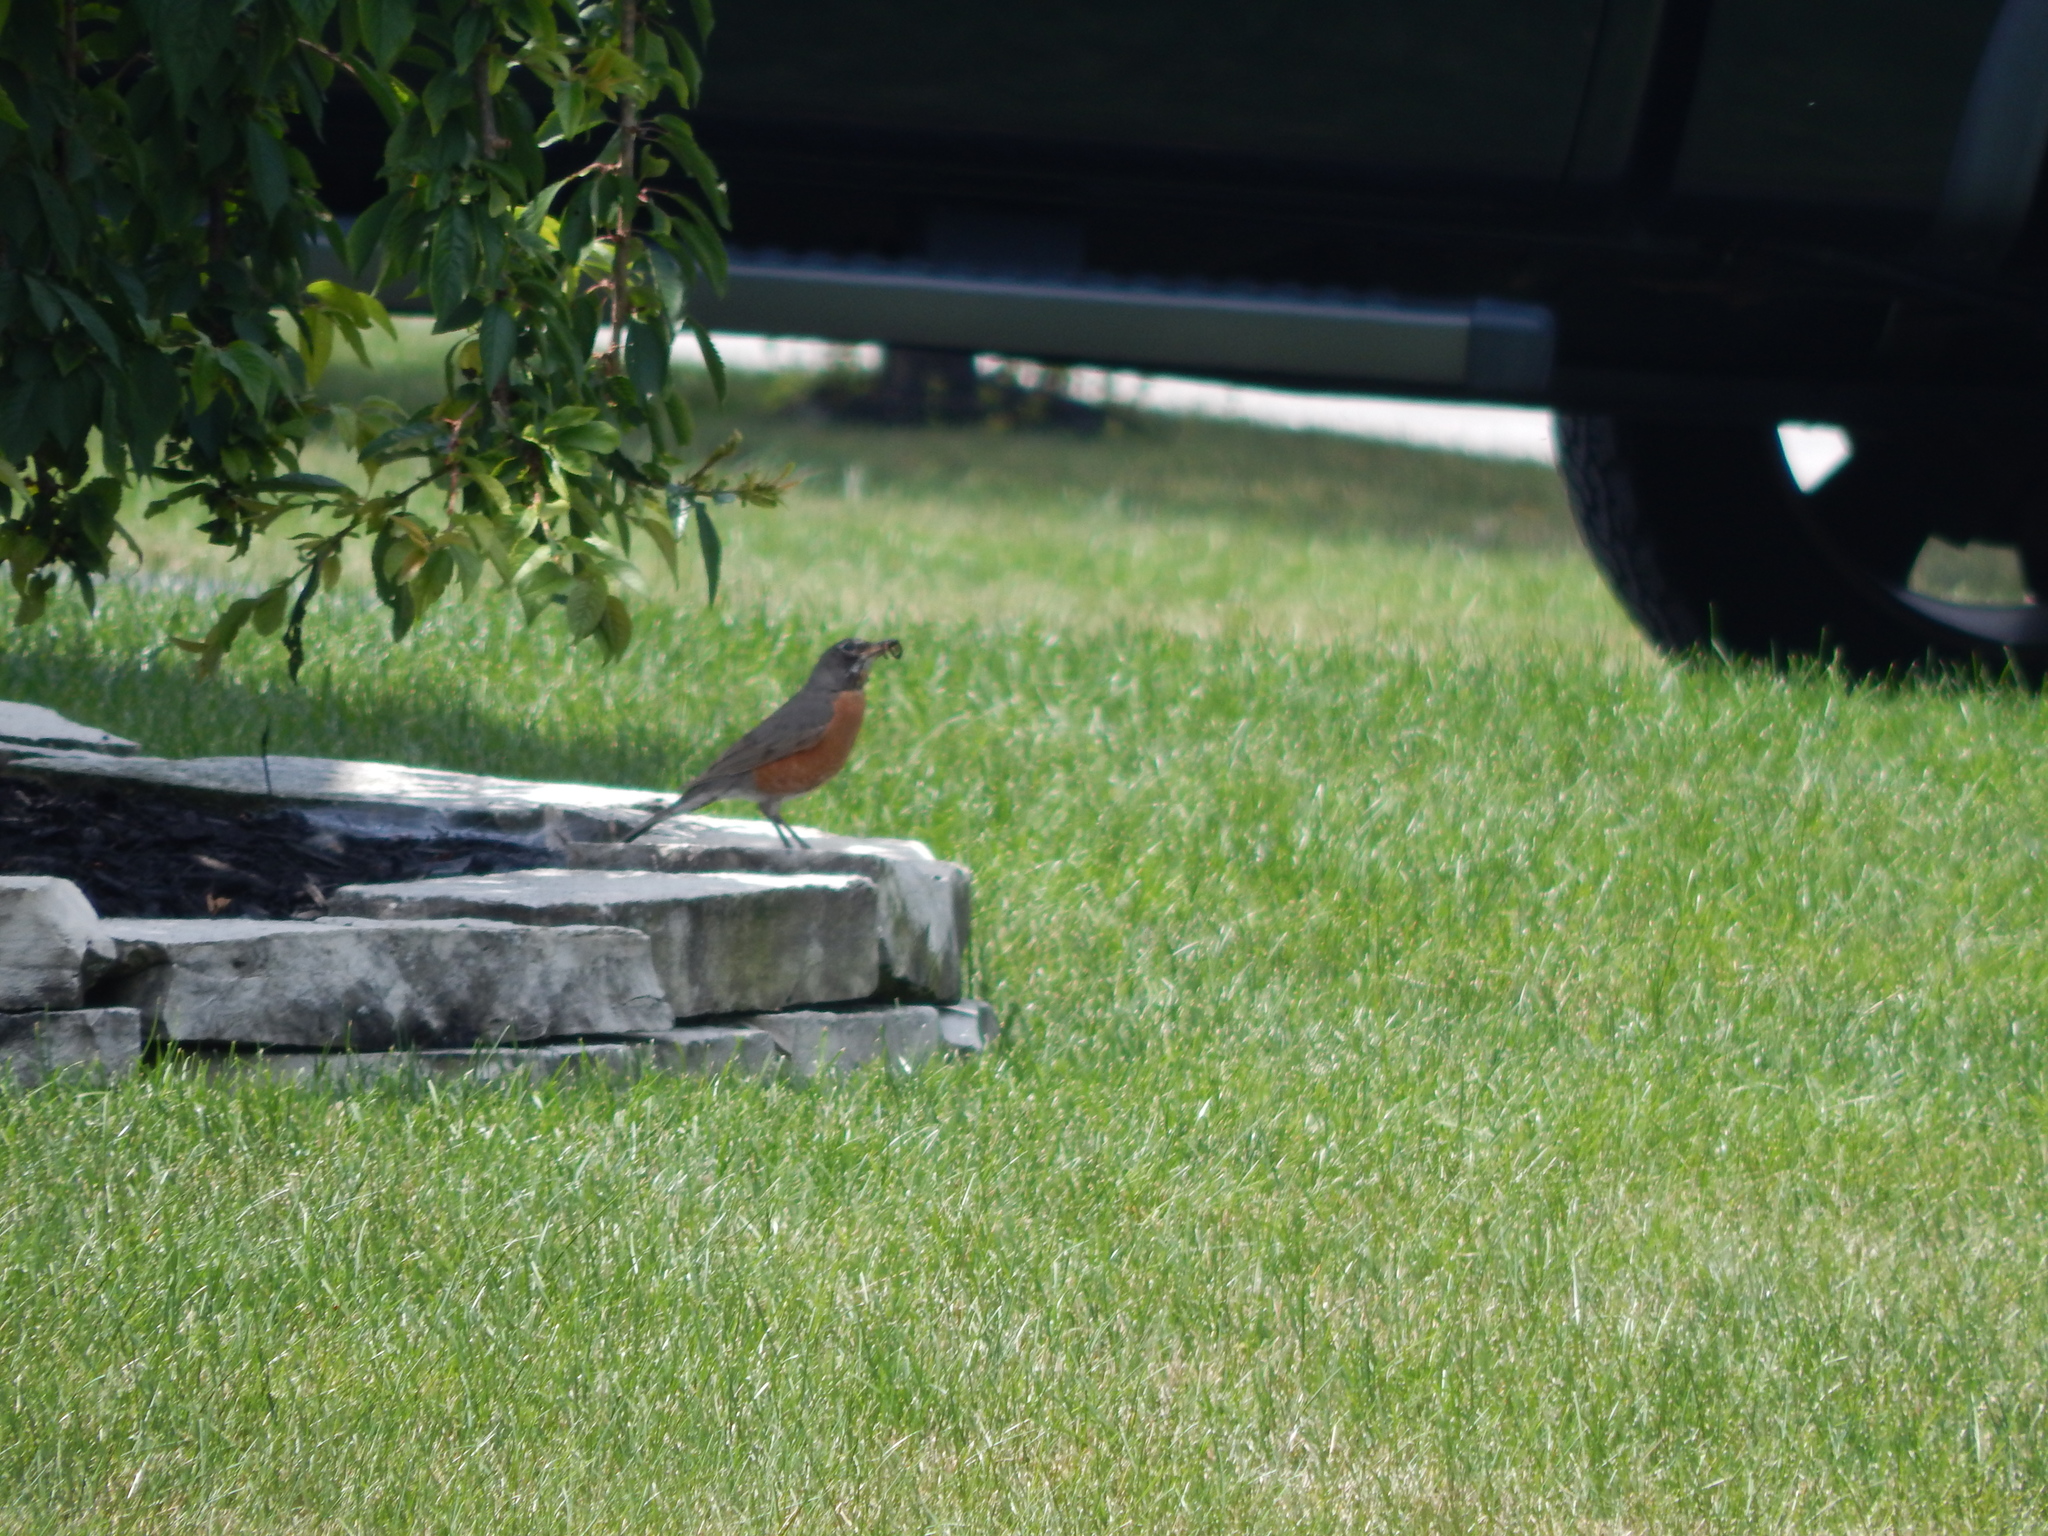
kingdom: Animalia
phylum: Chordata
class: Aves
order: Passeriformes
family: Turdidae
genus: Turdus
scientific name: Turdus migratorius
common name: American robin
